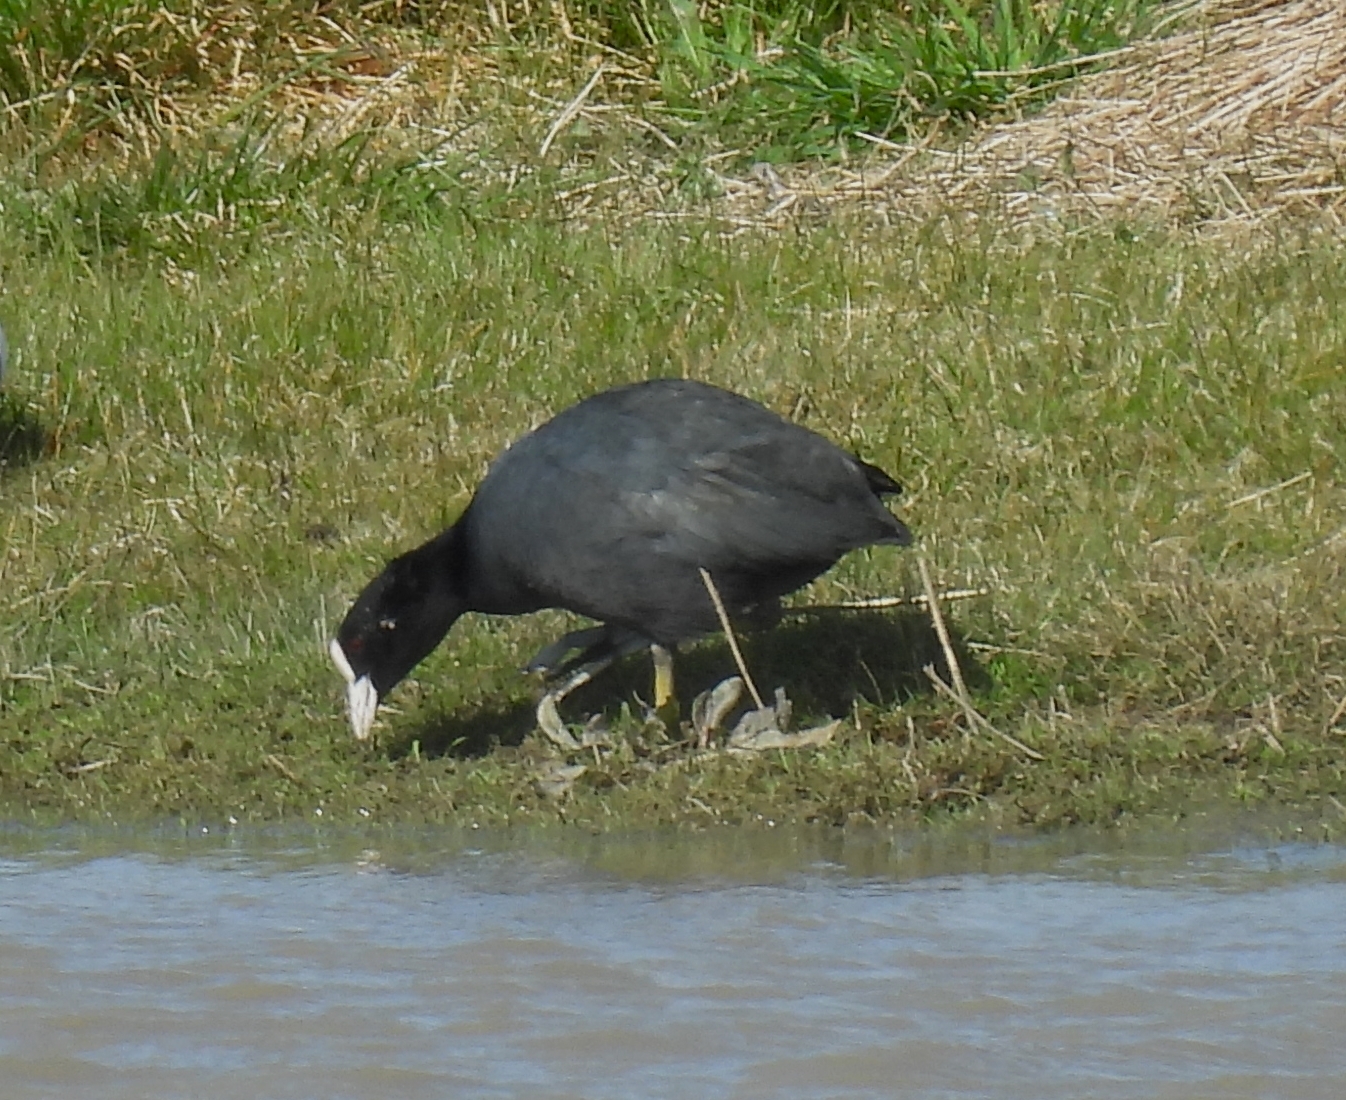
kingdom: Animalia
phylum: Chordata
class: Aves
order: Gruiformes
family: Rallidae
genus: Fulica
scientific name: Fulica atra
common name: Eurasian coot
